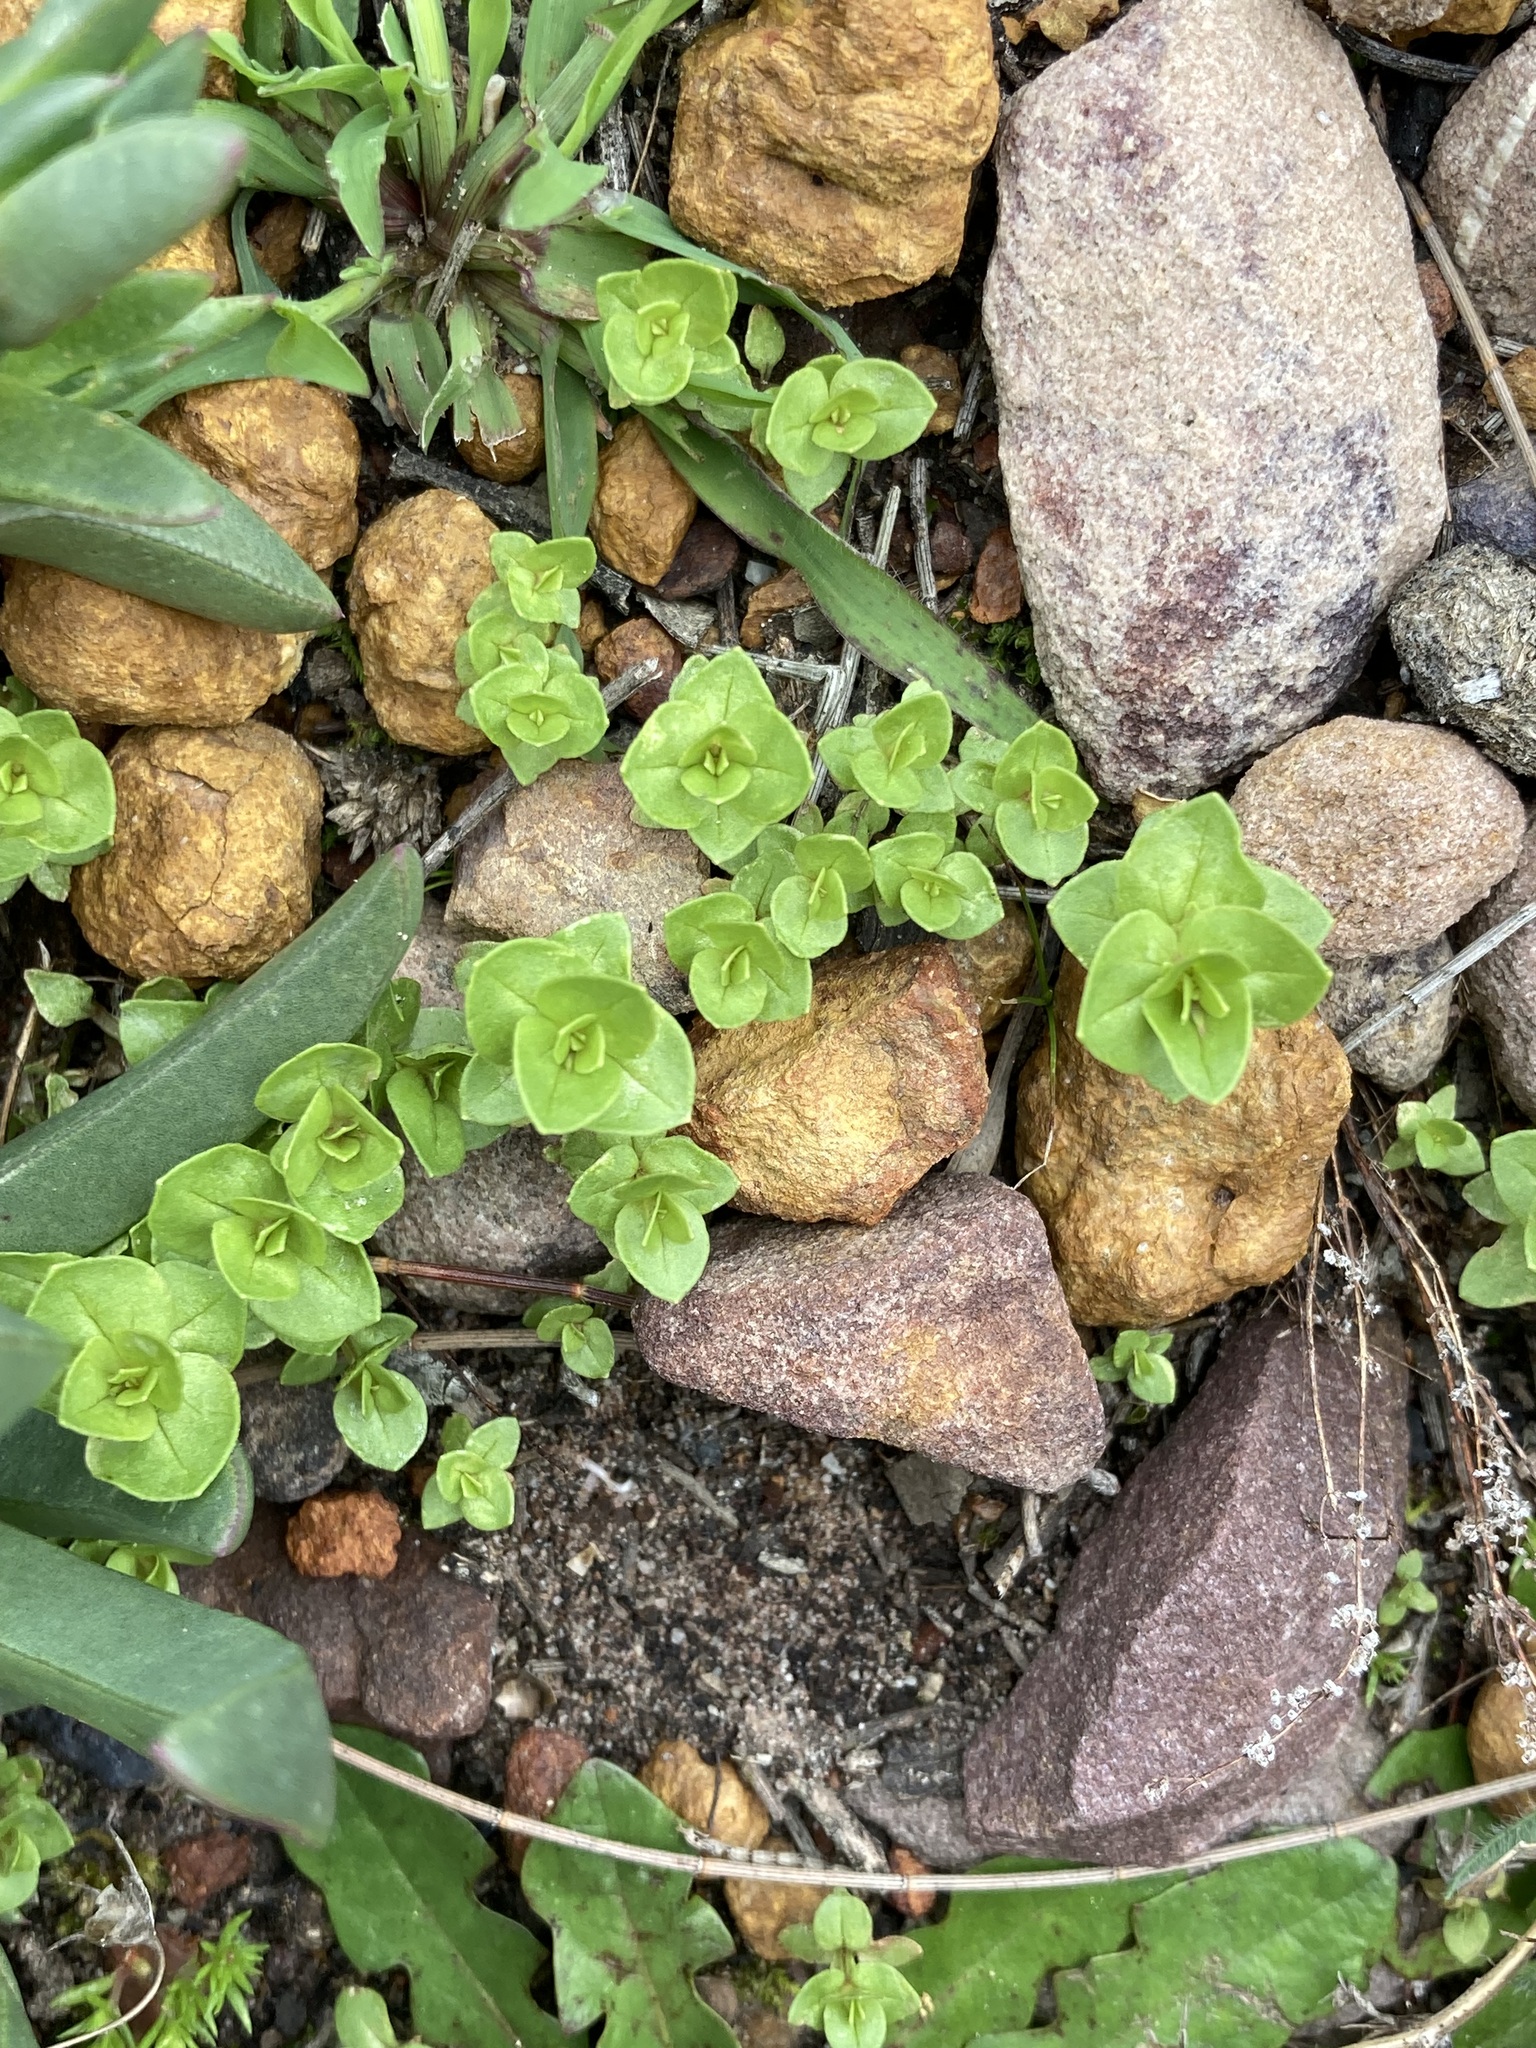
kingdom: Plantae
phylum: Tracheophyta
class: Magnoliopsida
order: Ericales
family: Primulaceae
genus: Lysimachia
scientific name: Lysimachia arvensis
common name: Scarlet pimpernel
